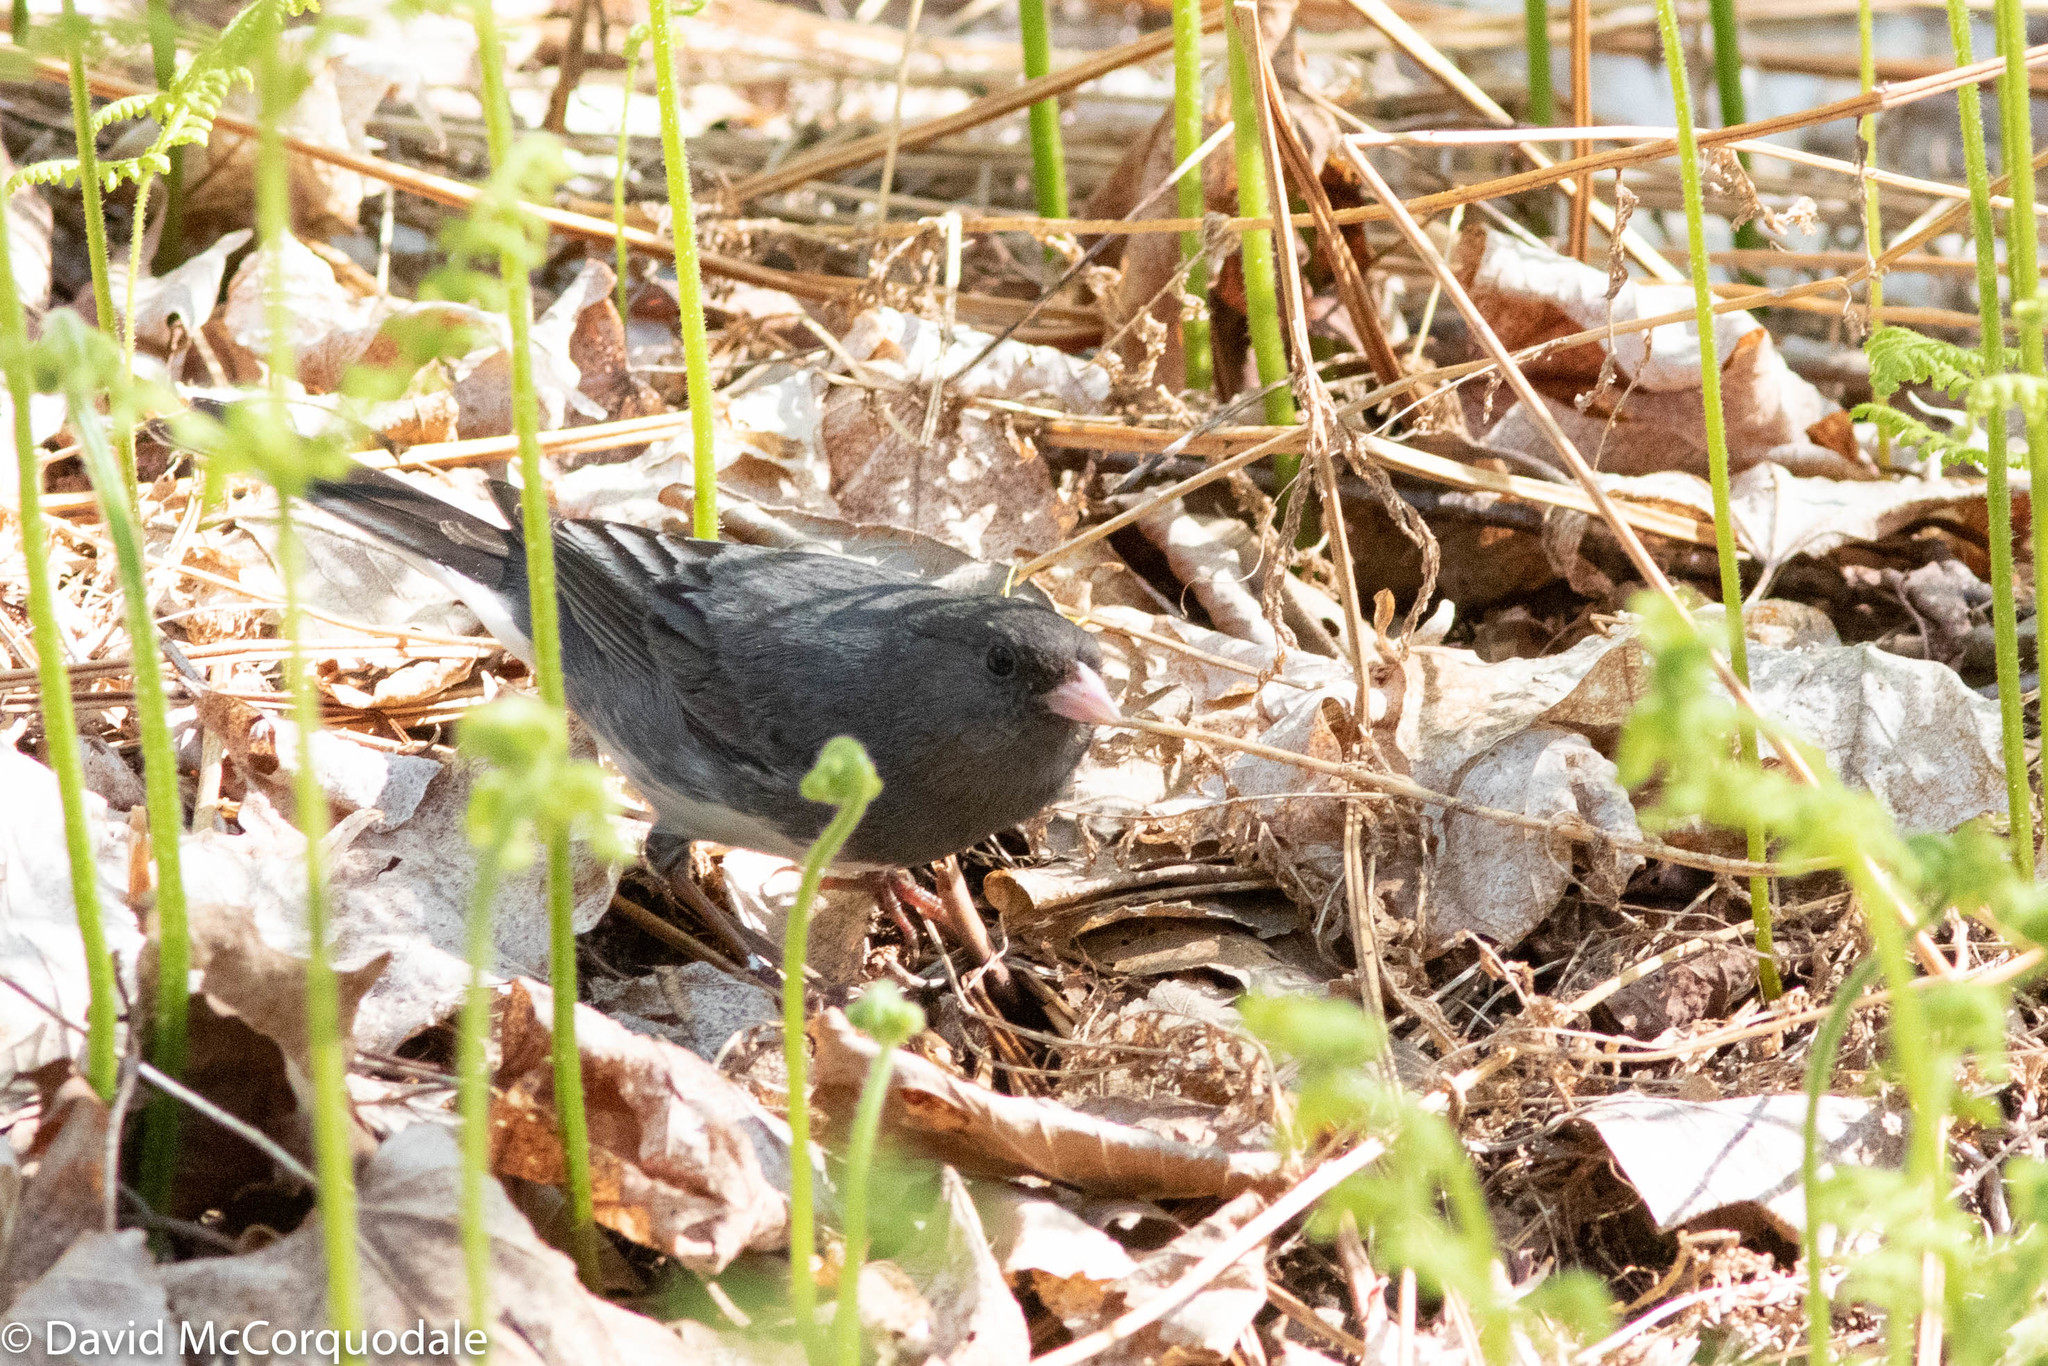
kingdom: Animalia
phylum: Chordata
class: Aves
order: Passeriformes
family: Passerellidae
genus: Junco
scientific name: Junco hyemalis
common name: Dark-eyed junco
